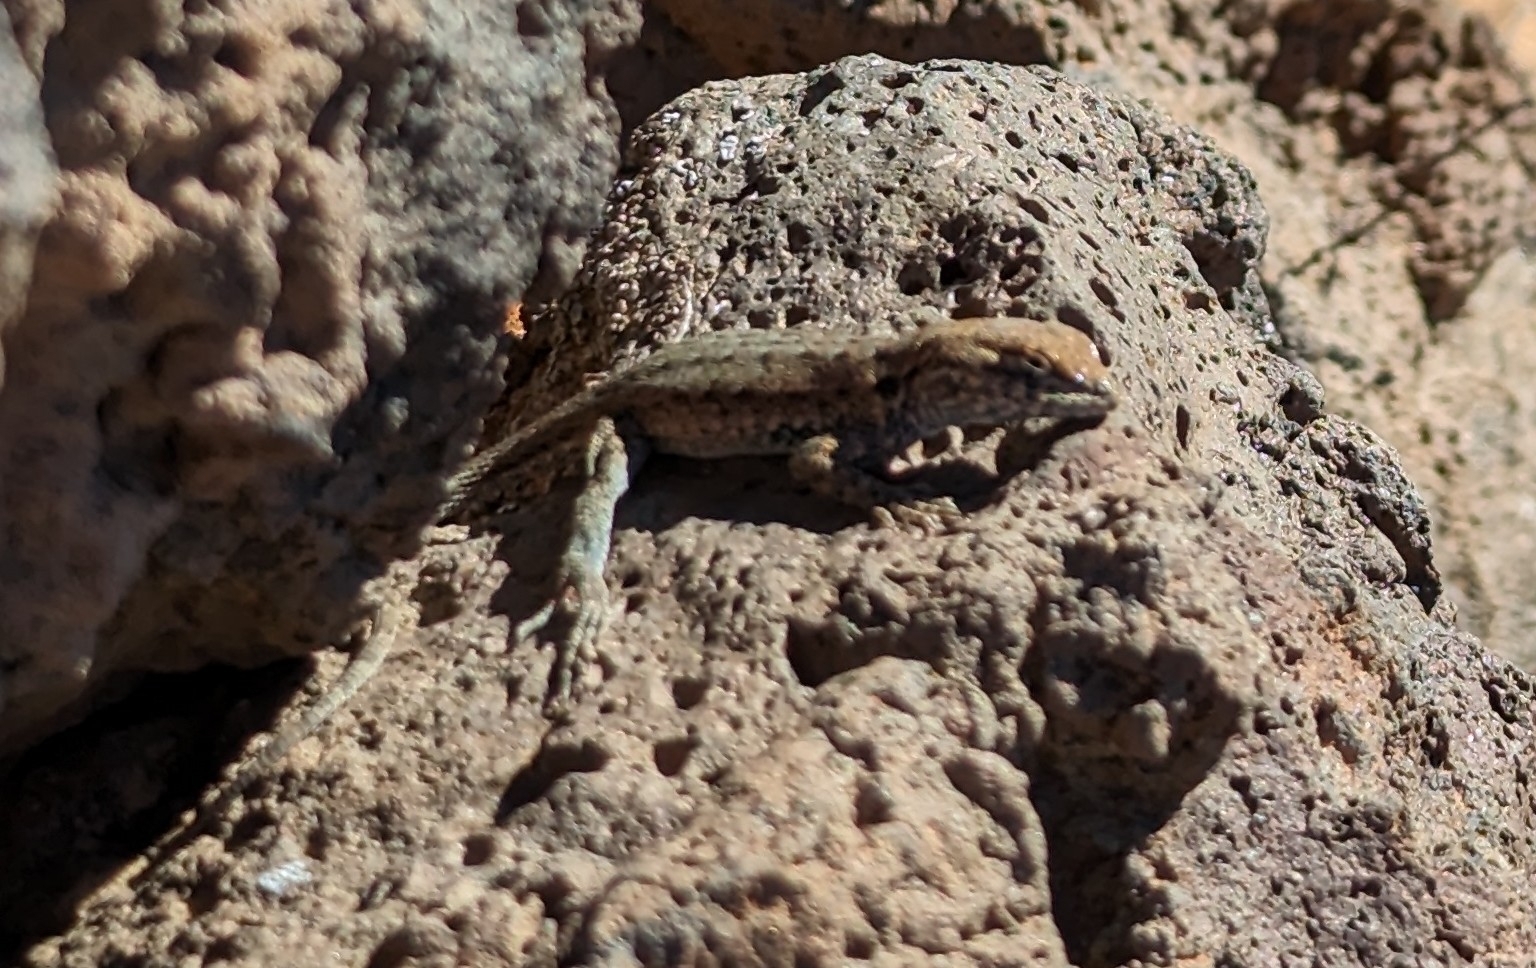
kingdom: Animalia
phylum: Chordata
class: Squamata
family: Phrynosomatidae
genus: Uta
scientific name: Uta stansburiana
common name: Side-blotched lizard
